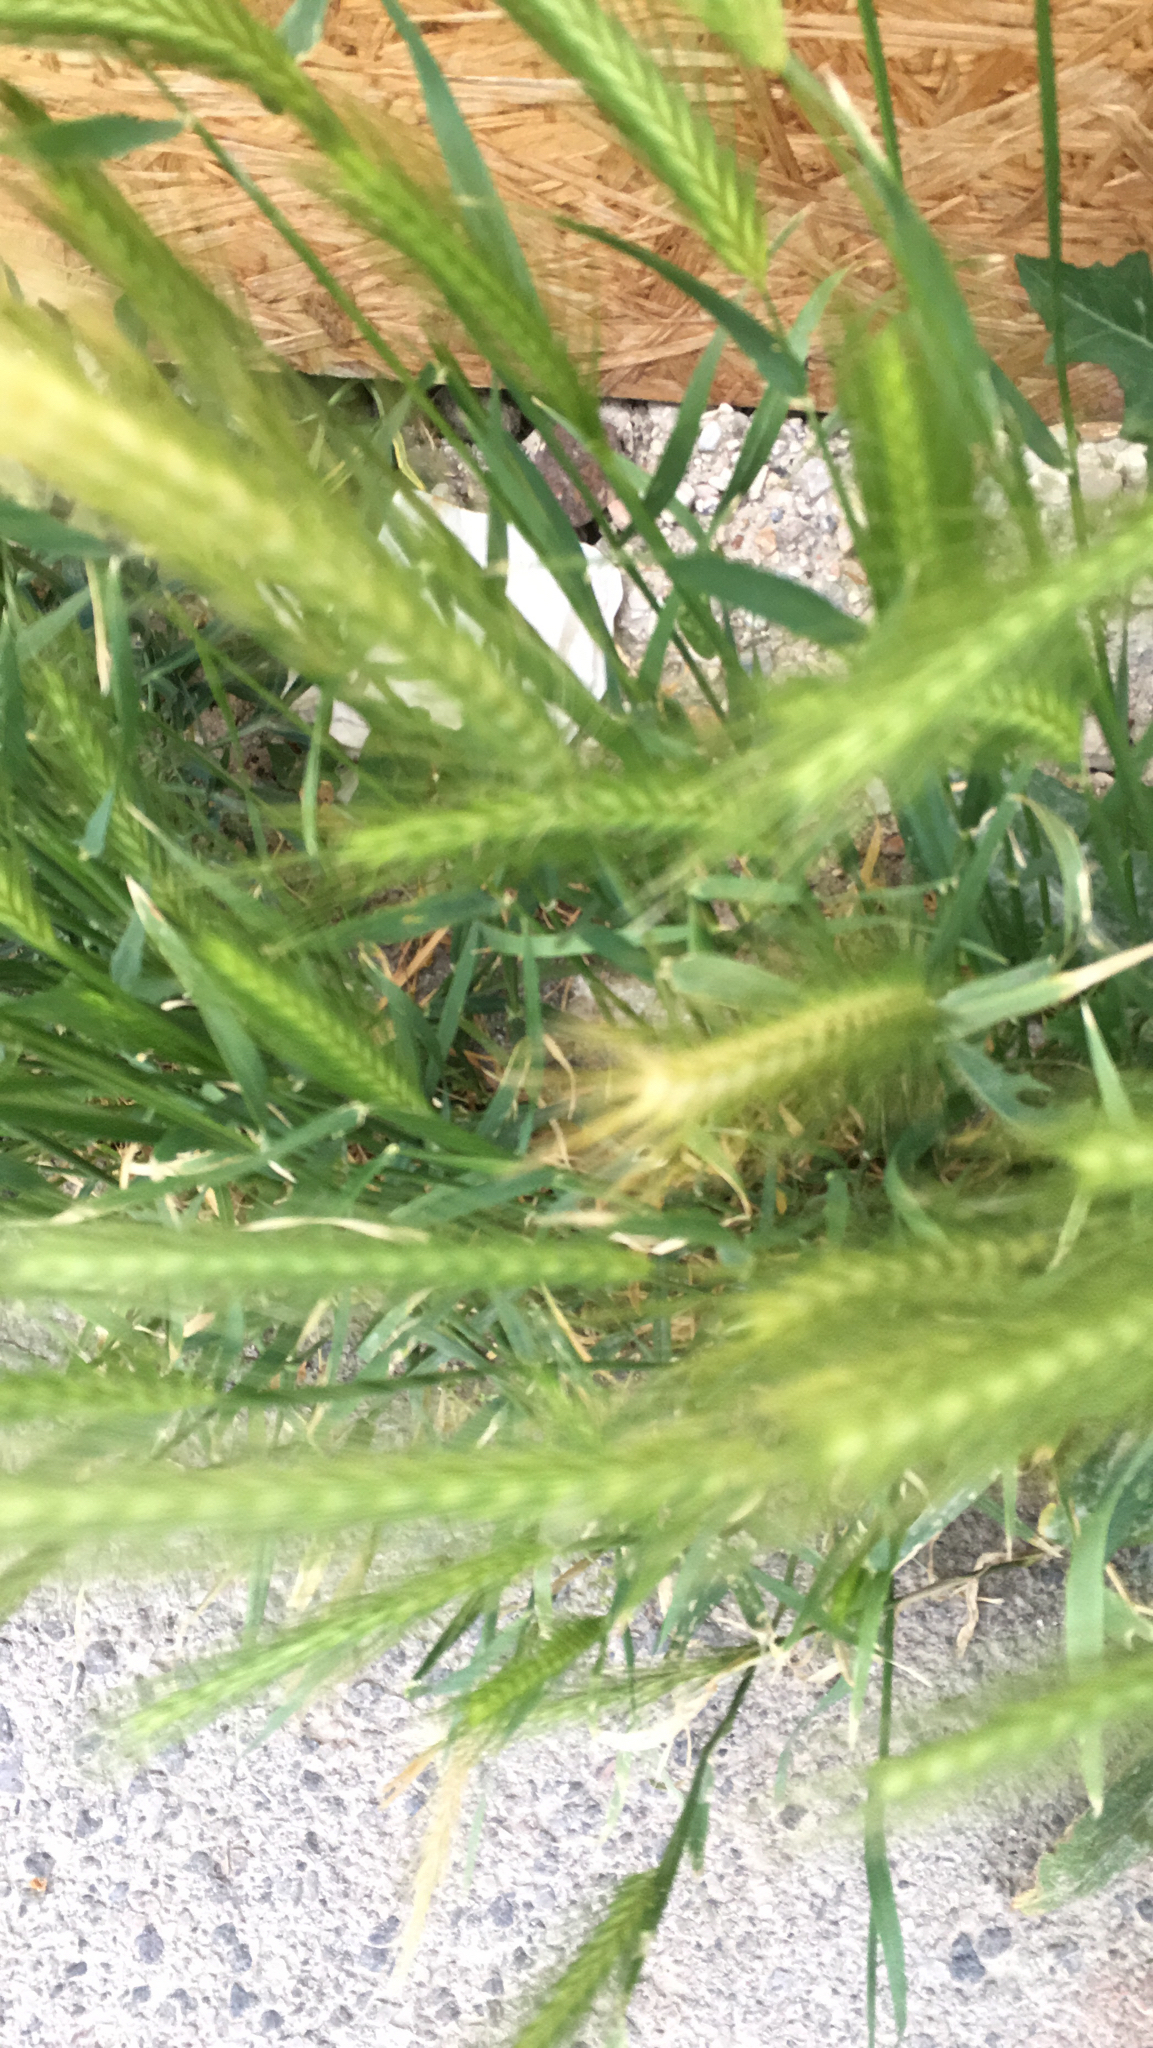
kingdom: Plantae
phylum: Tracheophyta
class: Liliopsida
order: Poales
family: Poaceae
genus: Hordeum
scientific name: Hordeum murinum
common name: Wall barley
